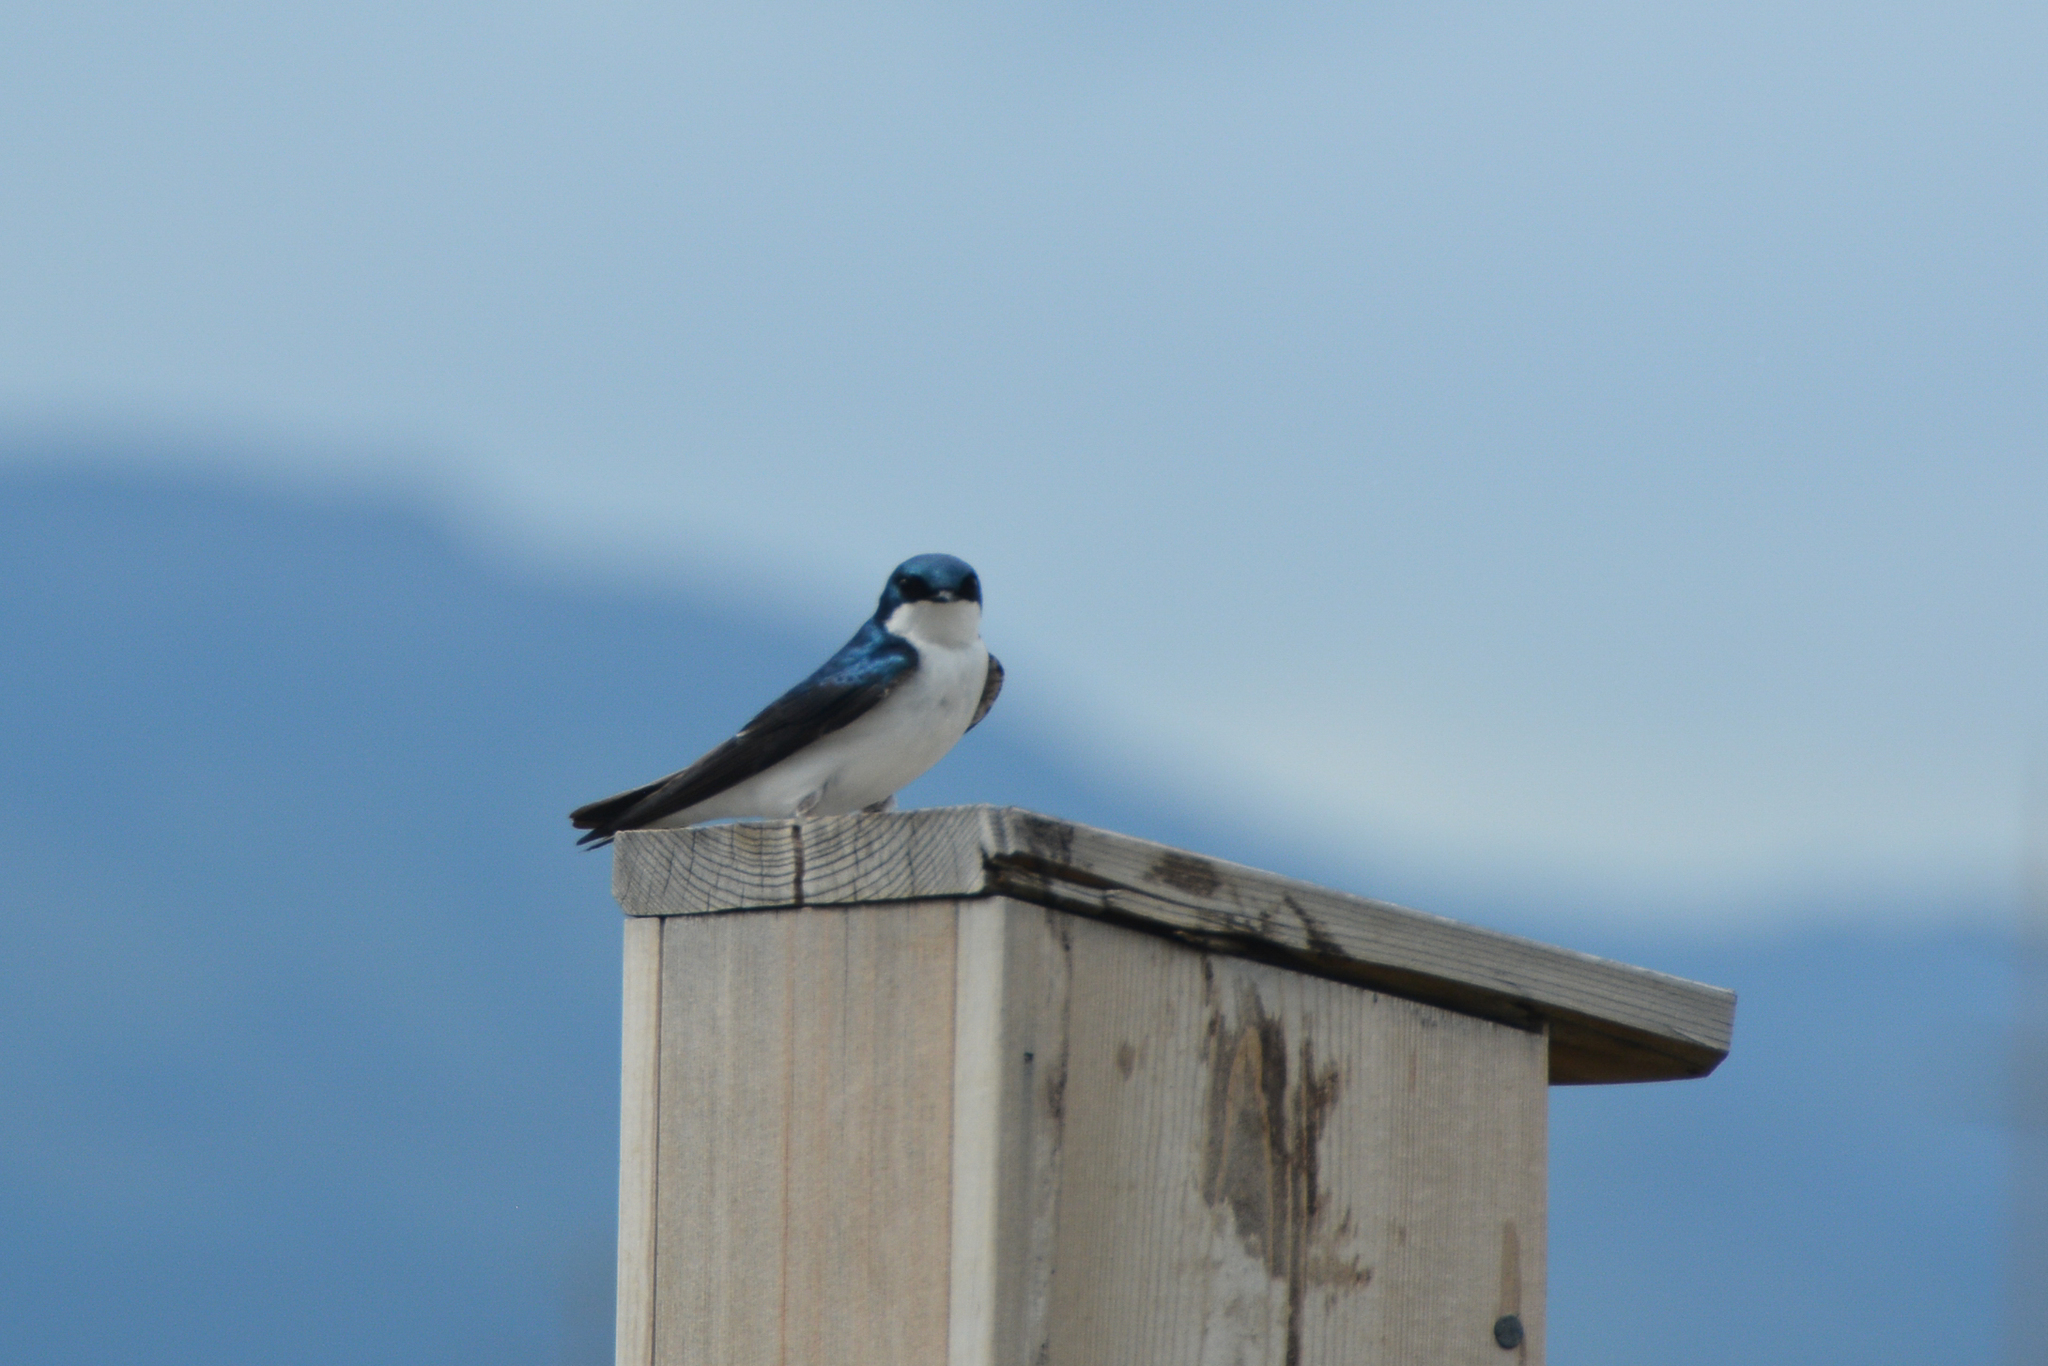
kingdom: Animalia
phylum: Chordata
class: Aves
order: Passeriformes
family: Hirundinidae
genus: Tachycineta
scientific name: Tachycineta bicolor
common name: Tree swallow
